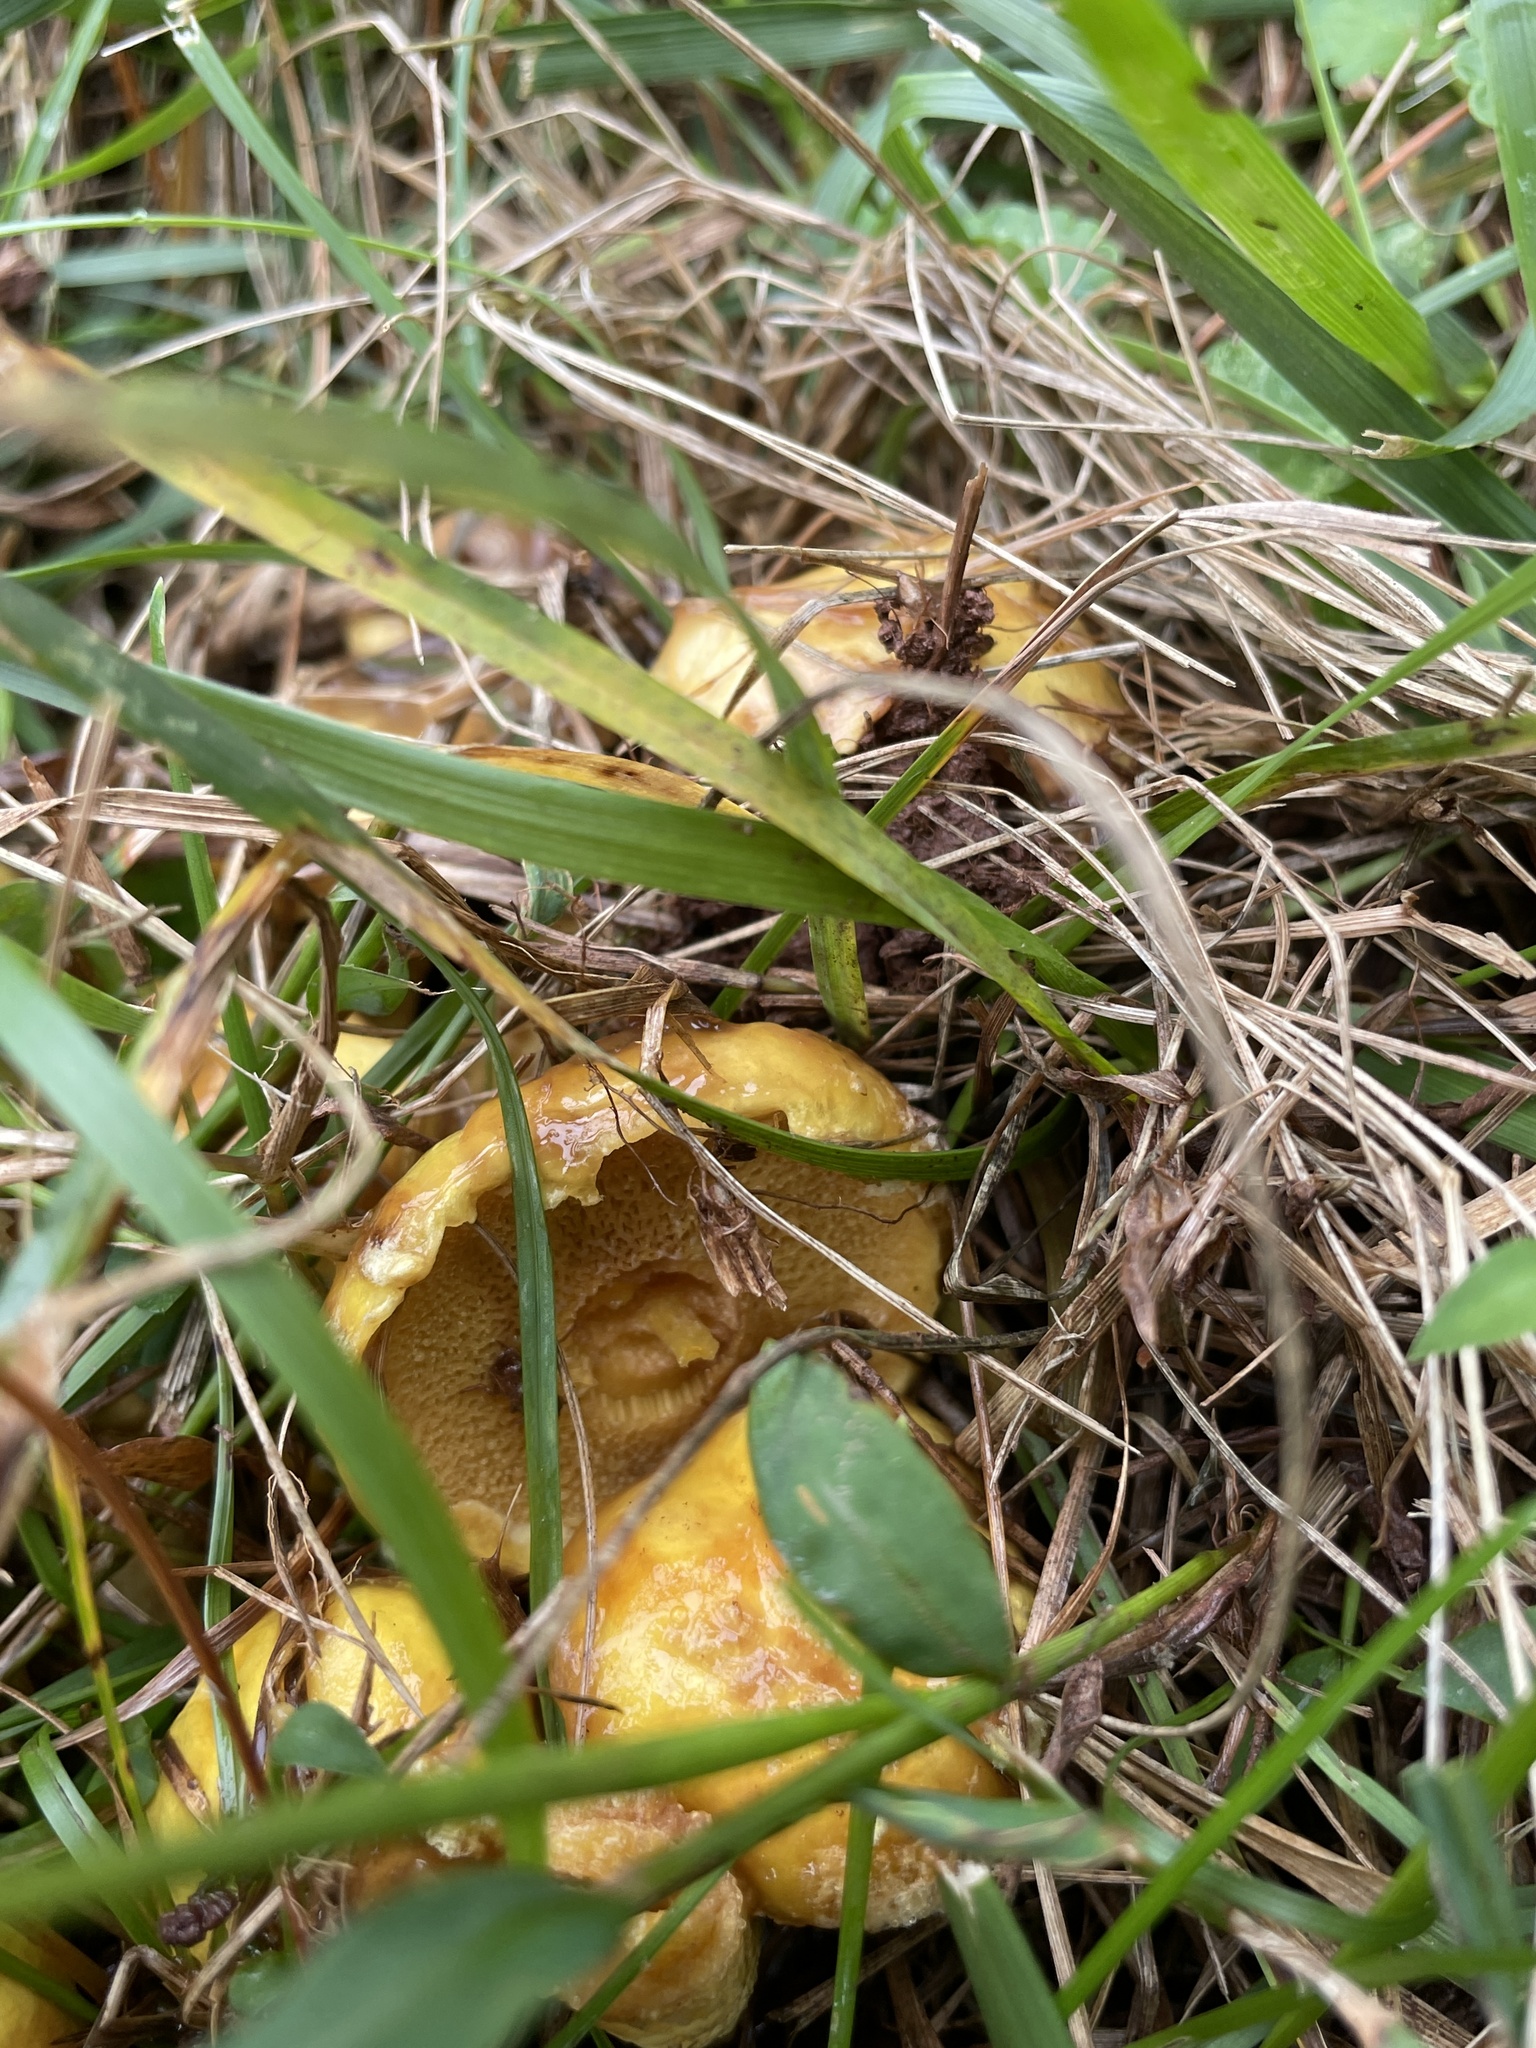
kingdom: Fungi
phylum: Basidiomycota
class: Agaricomycetes
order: Boletales
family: Suillaceae
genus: Suillus
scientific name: Suillus americanus
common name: Chicken fat mushroom
